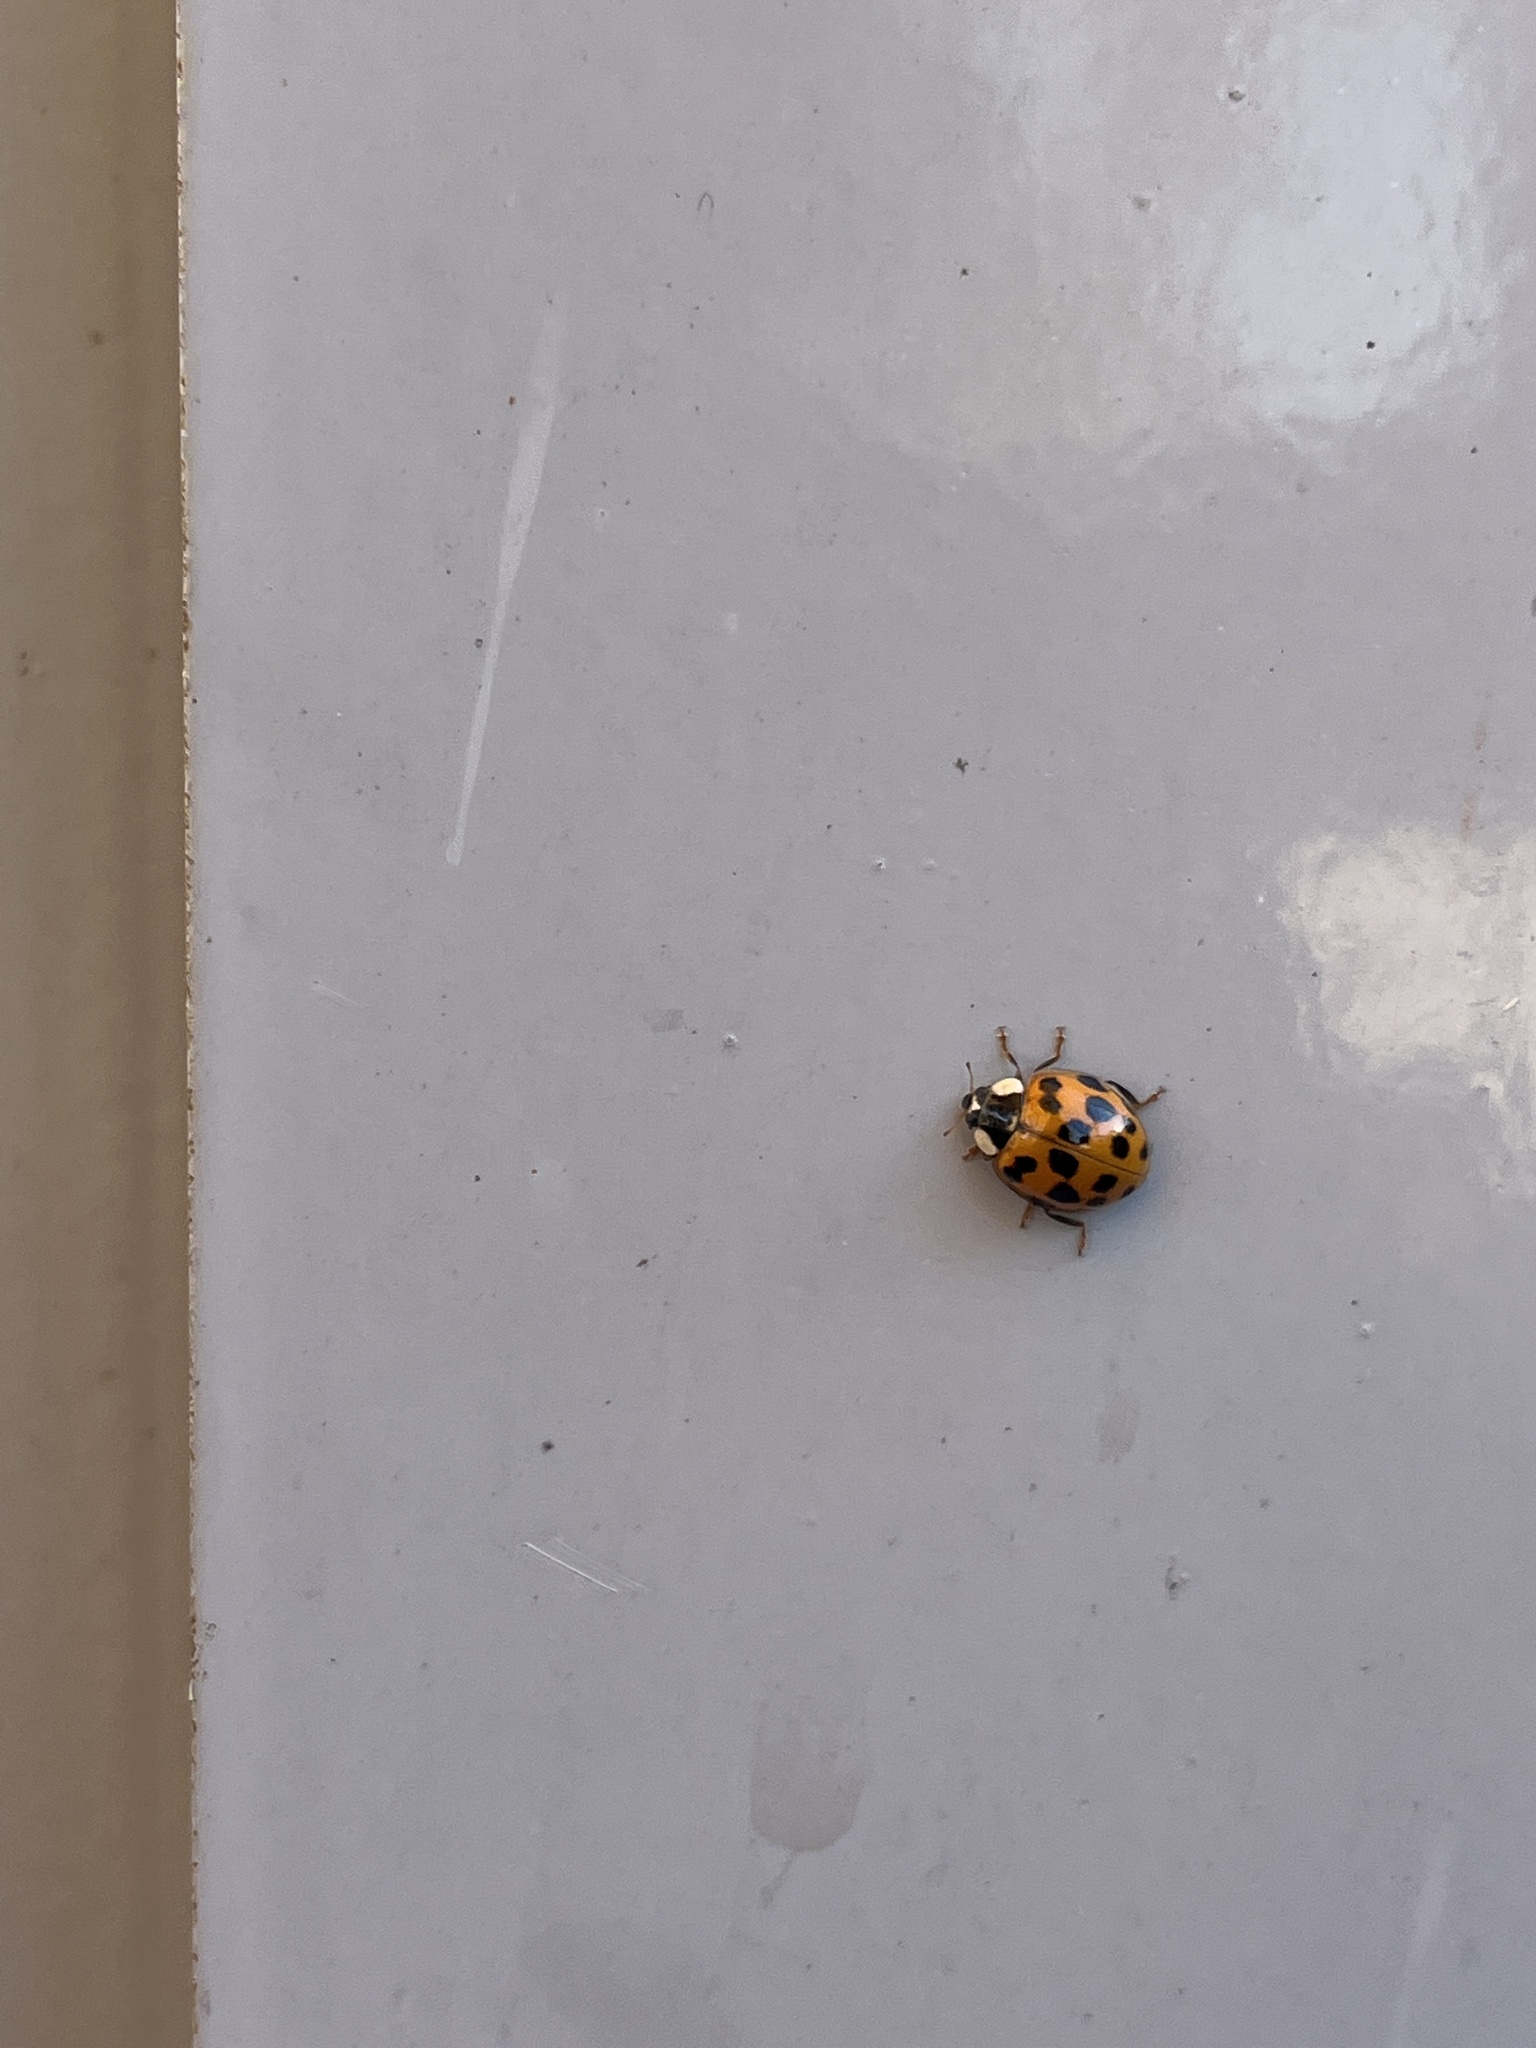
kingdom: Animalia
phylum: Arthropoda
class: Insecta
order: Coleoptera
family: Coccinellidae
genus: Harmonia
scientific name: Harmonia axyridis
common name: Harlequin ladybird
